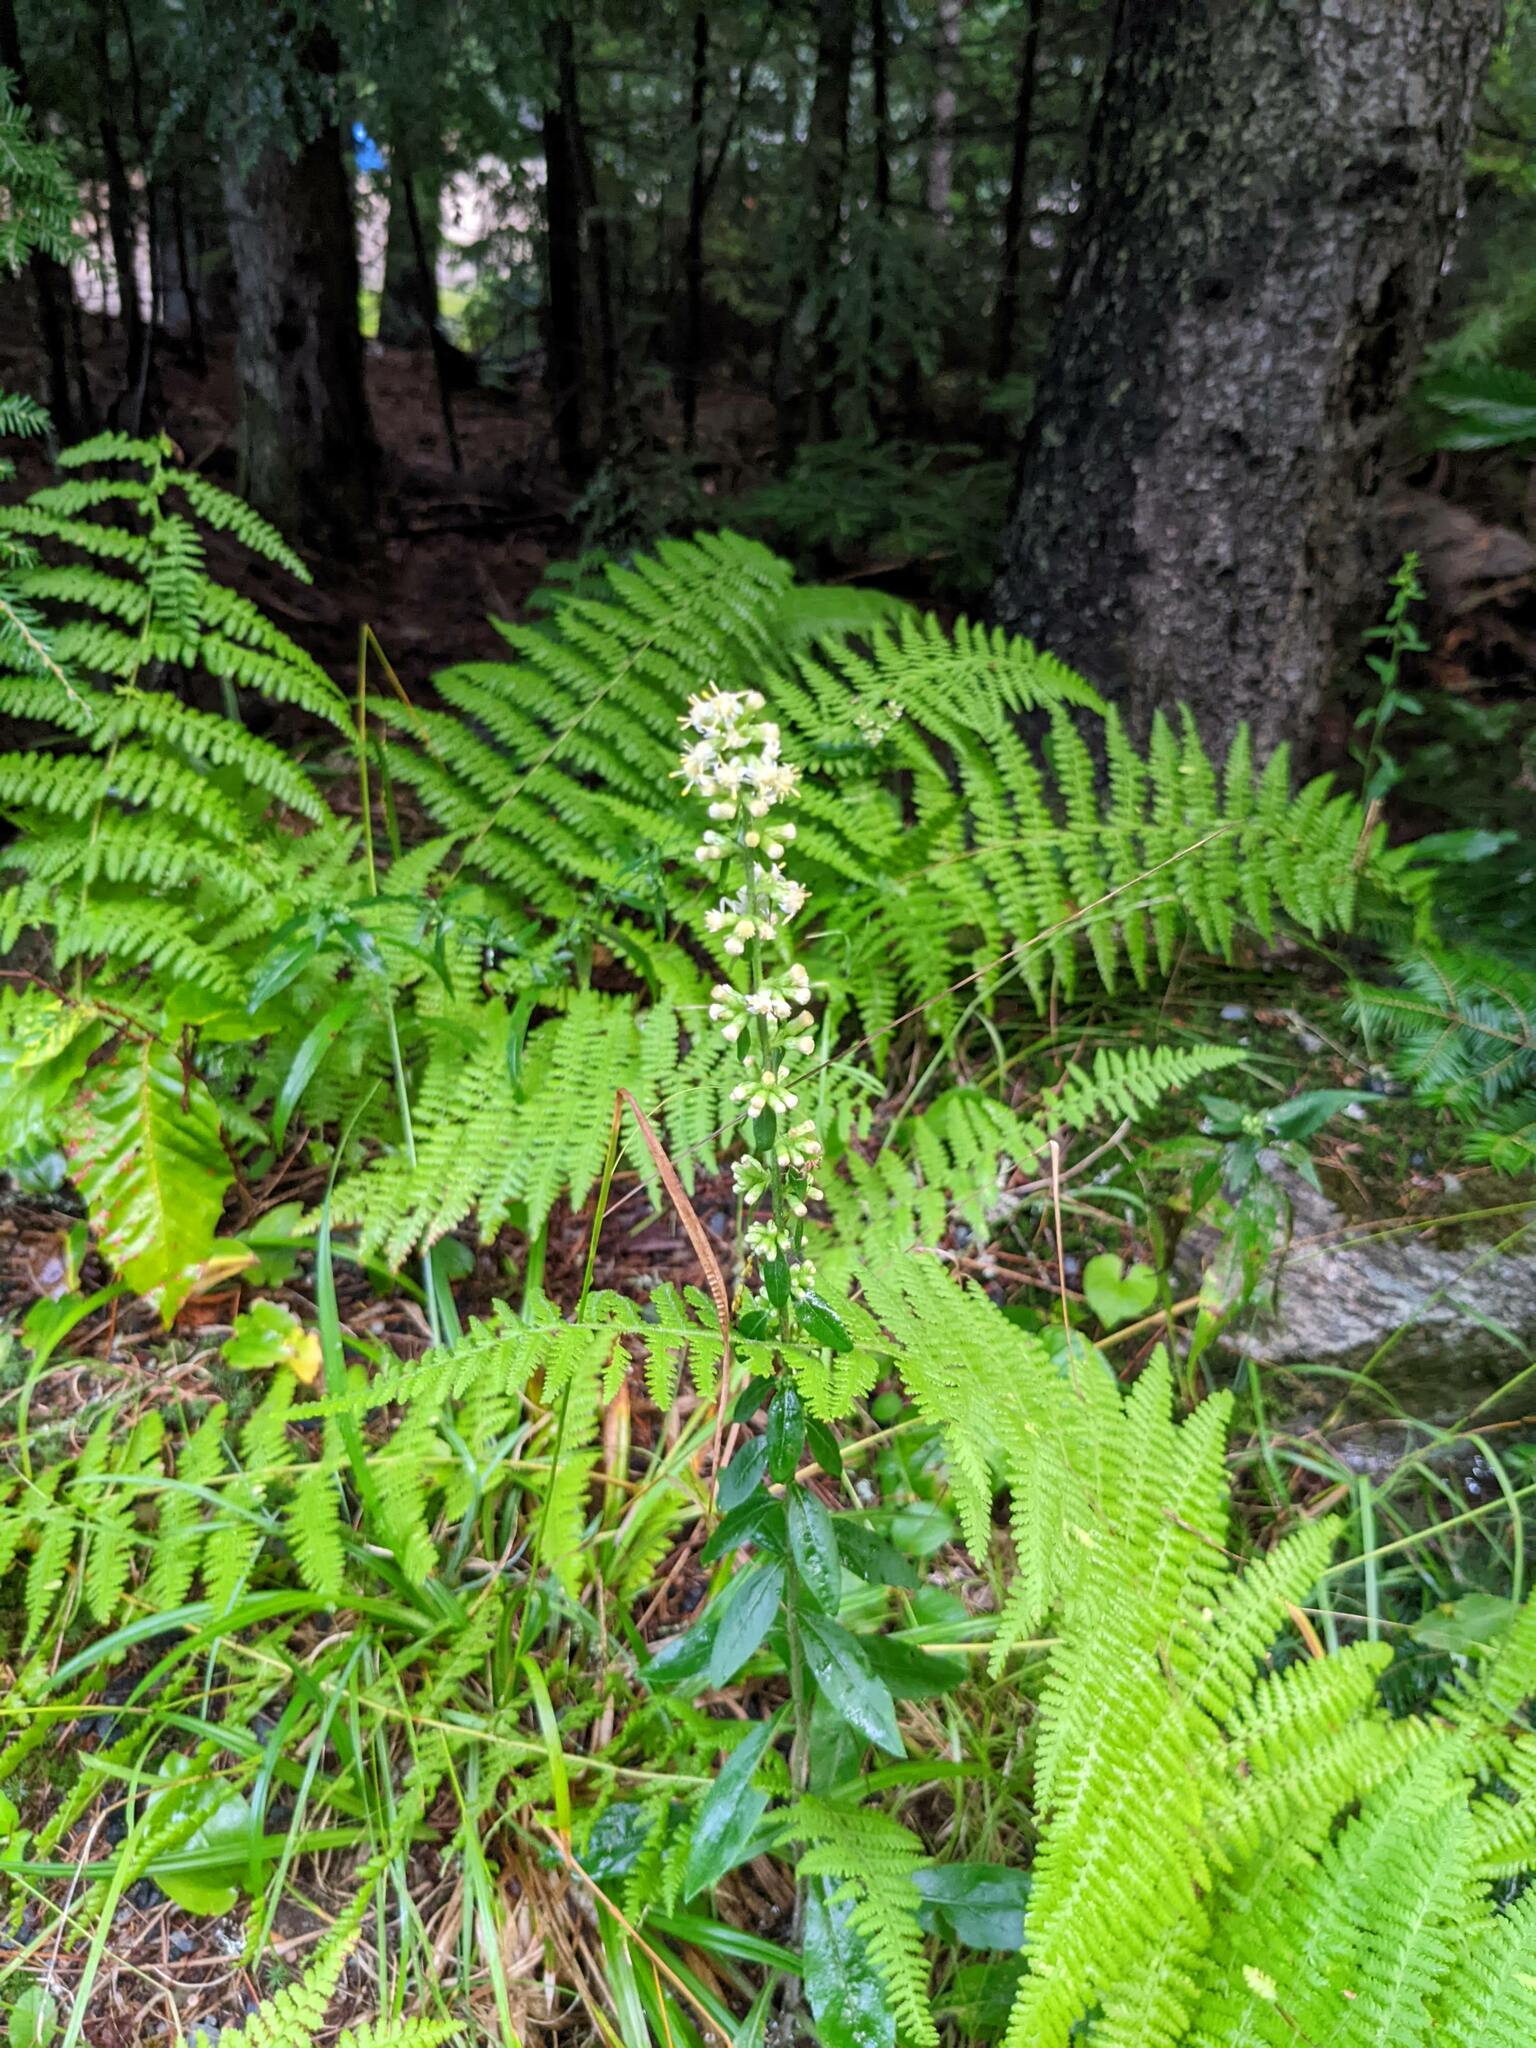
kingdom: Plantae
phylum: Tracheophyta
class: Magnoliopsida
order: Asterales
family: Asteraceae
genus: Solidago
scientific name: Solidago bicolor
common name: Silverrod
